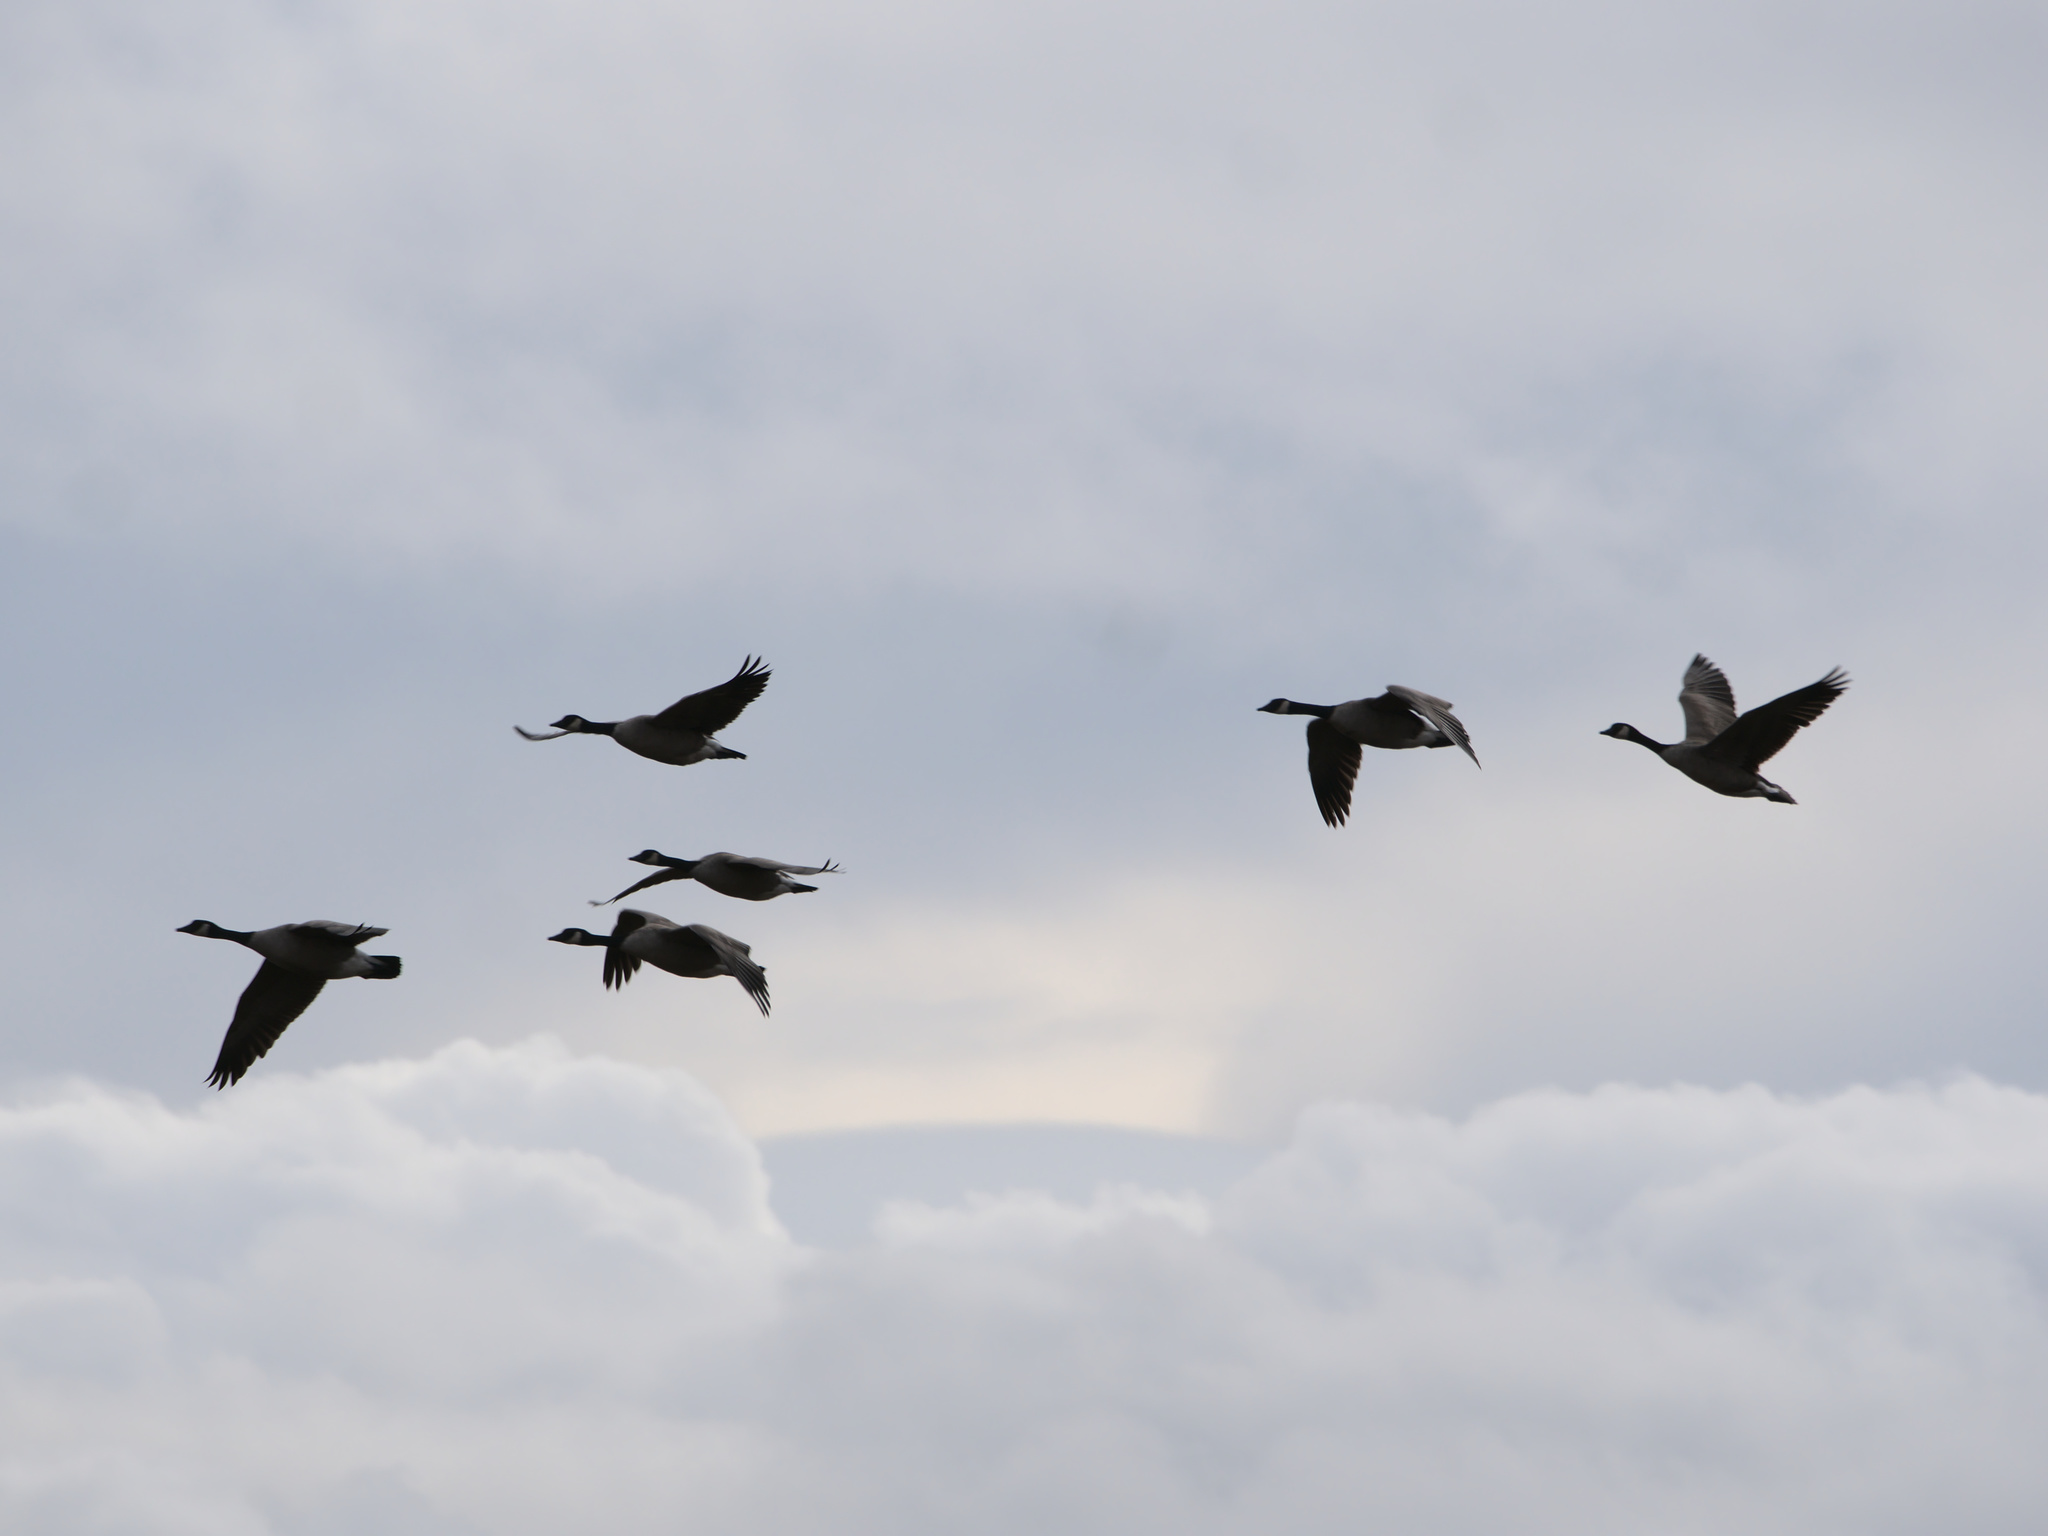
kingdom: Animalia
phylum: Chordata
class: Aves
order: Anseriformes
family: Anatidae
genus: Branta
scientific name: Branta canadensis
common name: Canada goose
